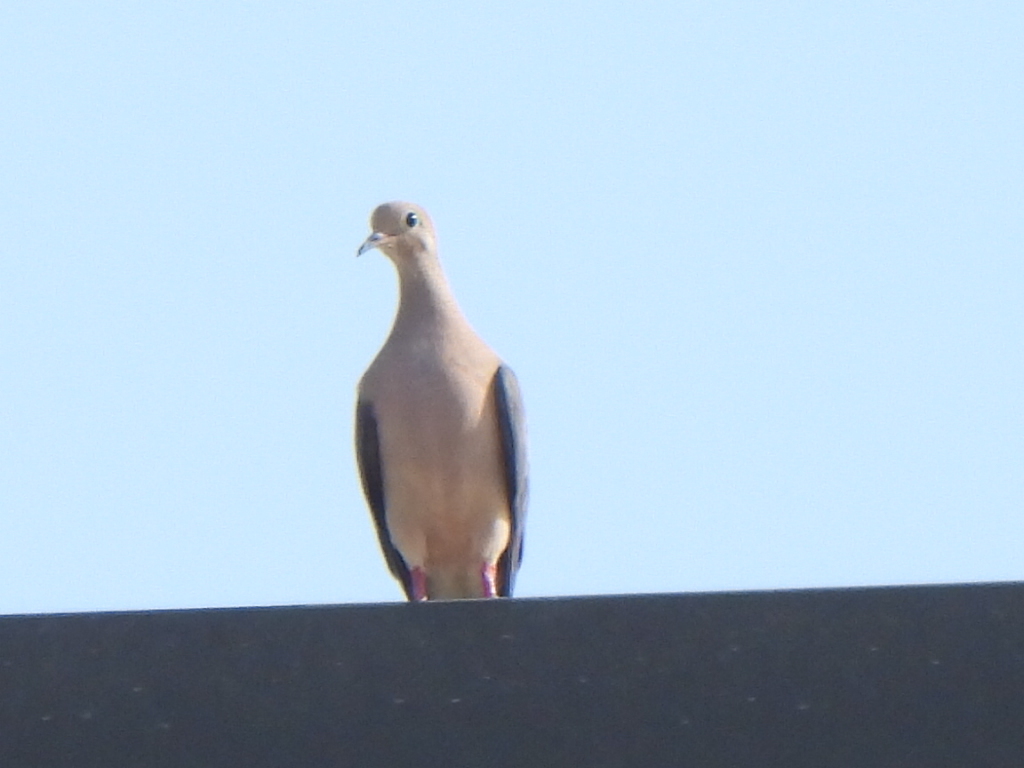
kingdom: Animalia
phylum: Chordata
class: Aves
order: Columbiformes
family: Columbidae
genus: Zenaida
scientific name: Zenaida macroura
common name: Mourning dove
